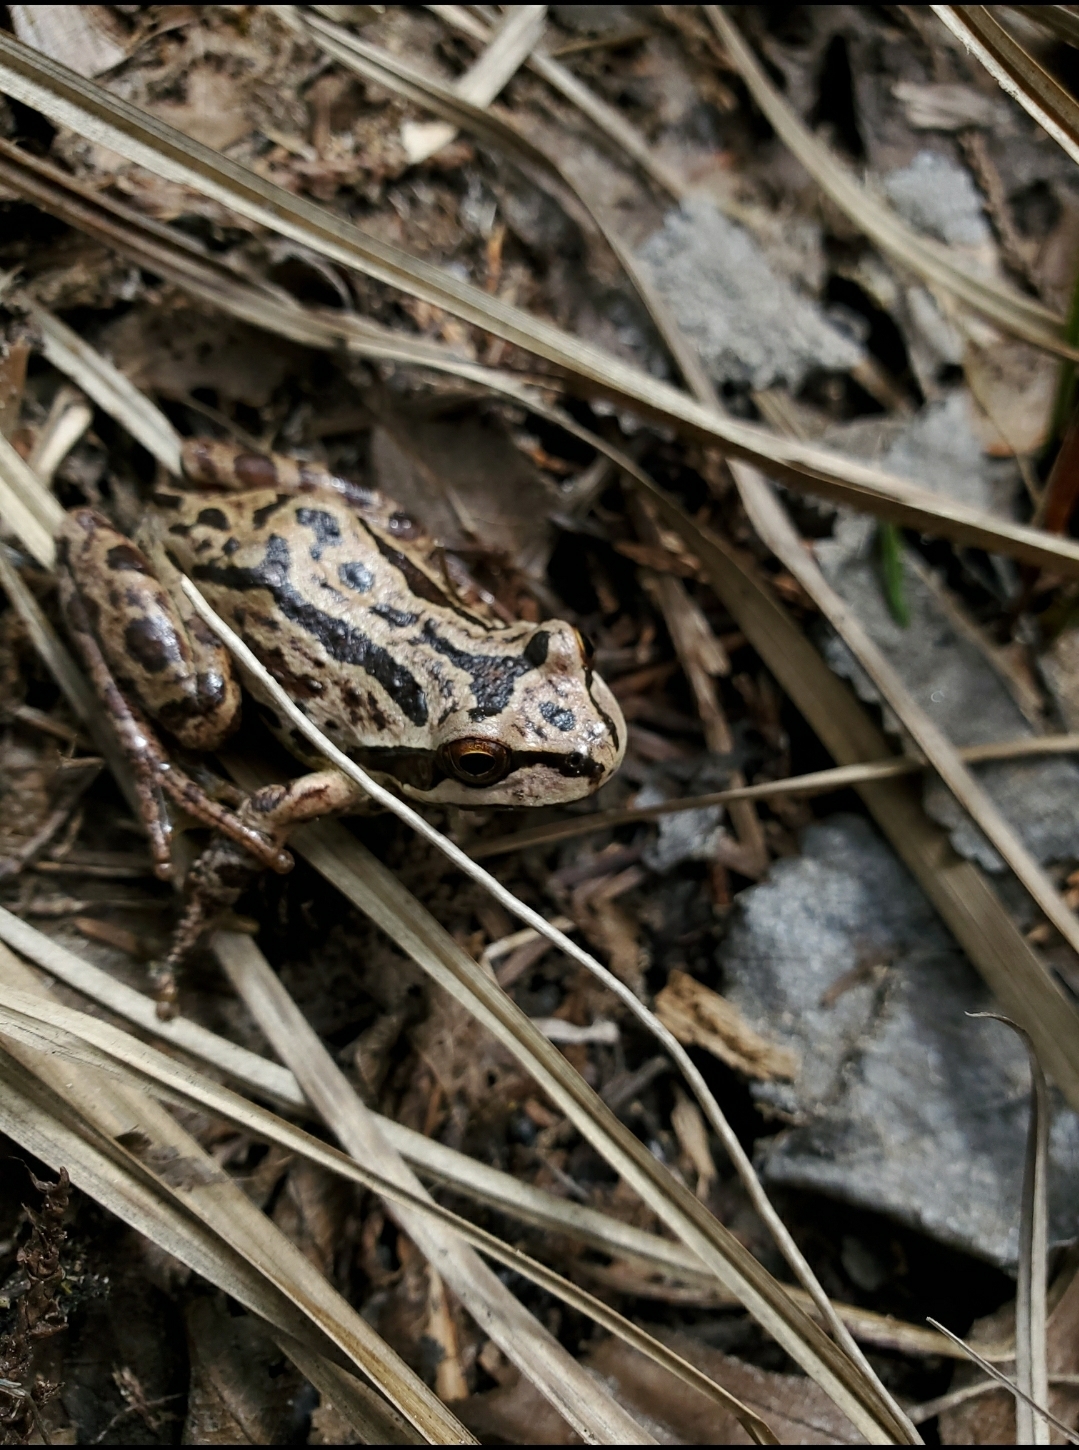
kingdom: Animalia
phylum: Chordata
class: Amphibia
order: Anura
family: Hylidae
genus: Pseudacris
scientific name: Pseudacris regilla
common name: Pacific chorus frog
